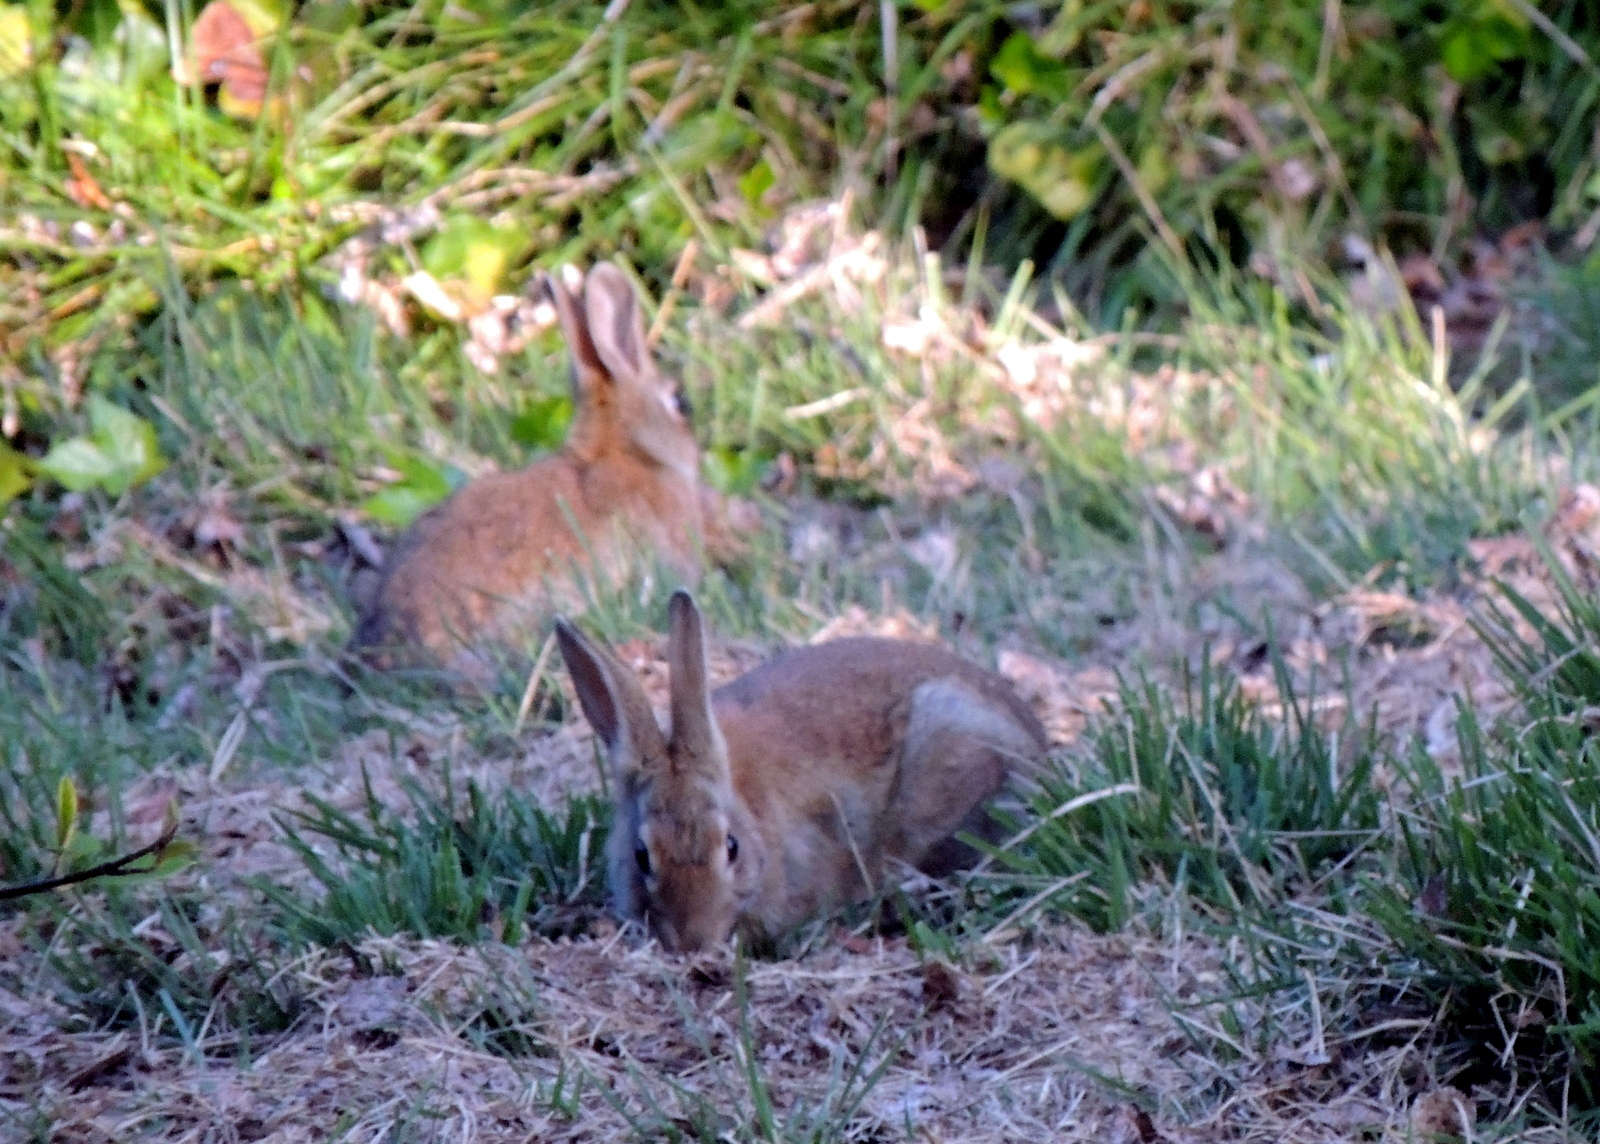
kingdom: Animalia
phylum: Chordata
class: Mammalia
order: Lagomorpha
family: Leporidae
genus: Oryctolagus
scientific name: Oryctolagus cuniculus
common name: European rabbit
